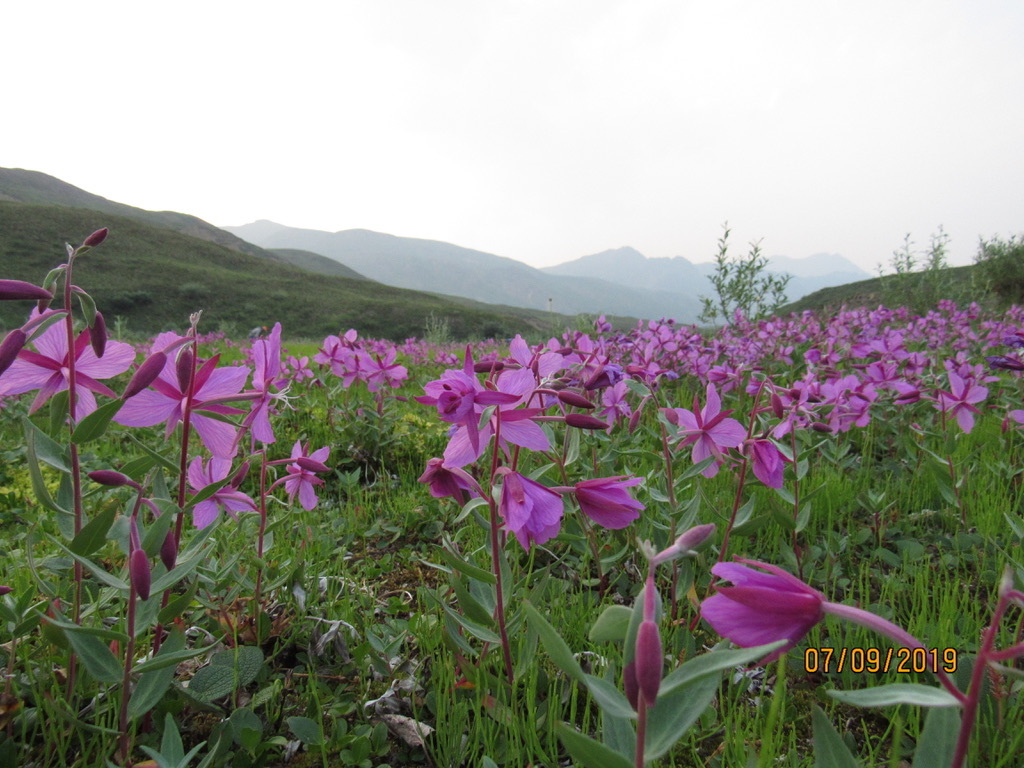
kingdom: Plantae
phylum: Tracheophyta
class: Magnoliopsida
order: Myrtales
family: Onagraceae
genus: Chamaenerion
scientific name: Chamaenerion latifolium
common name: Dwarf fireweed
